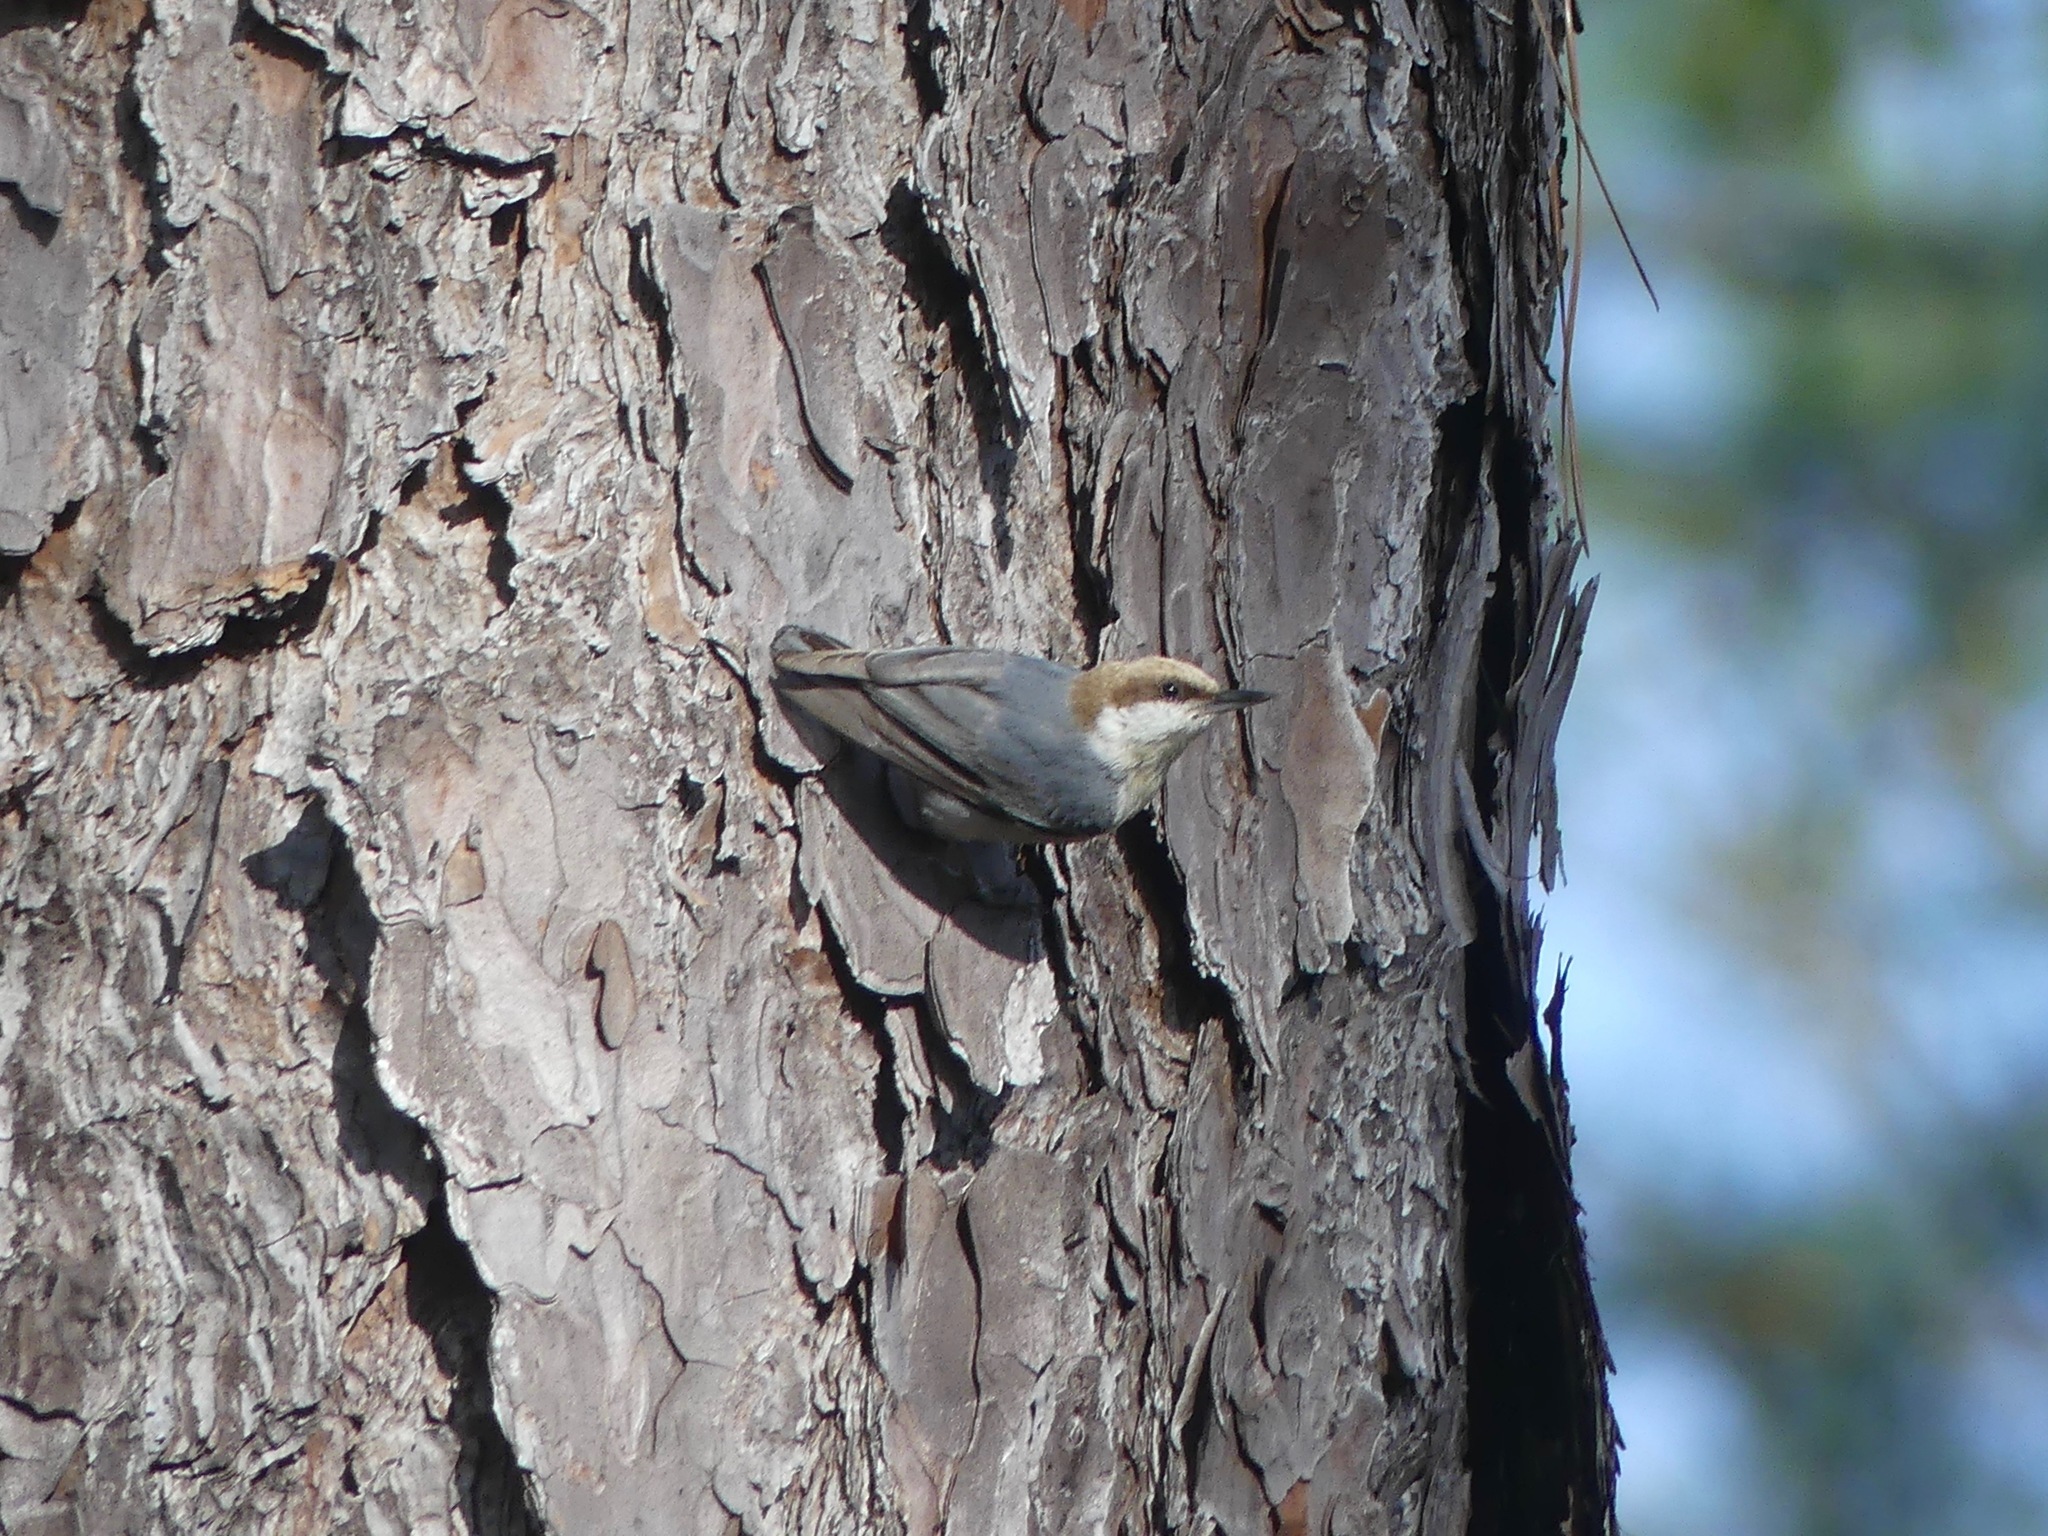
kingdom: Animalia
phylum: Chordata
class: Aves
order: Passeriformes
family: Sittidae
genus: Sitta
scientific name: Sitta pusilla
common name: Brown-headed nuthatch
